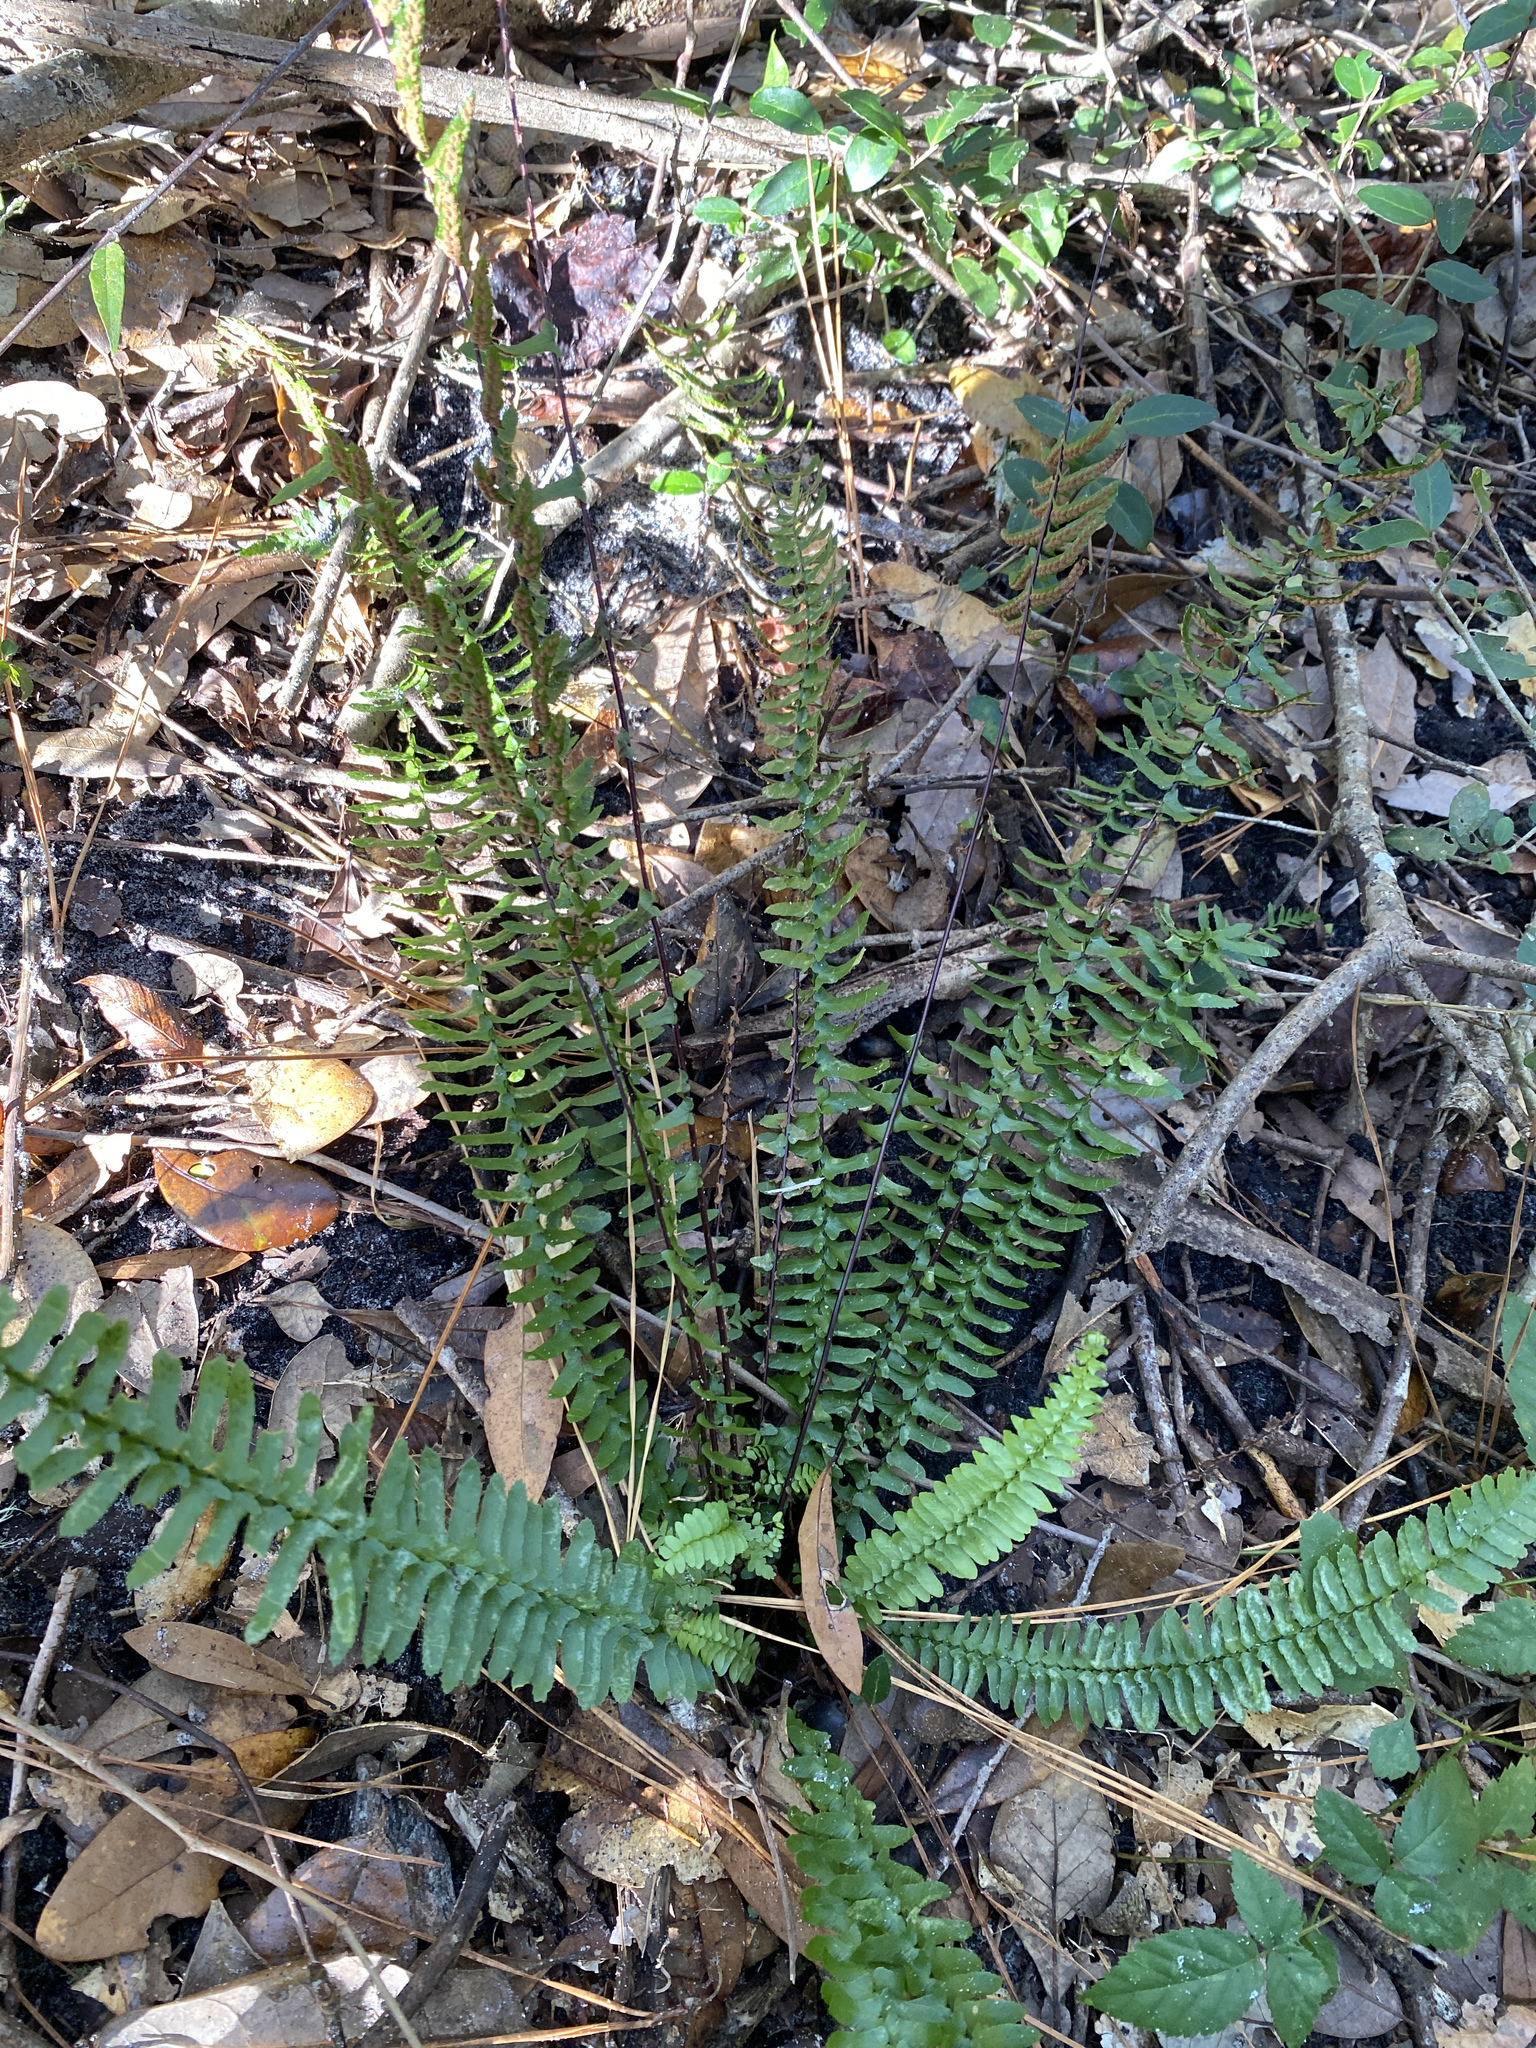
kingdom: Plantae
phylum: Tracheophyta
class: Polypodiopsida
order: Polypodiales
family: Aspleniaceae
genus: Asplenium
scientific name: Asplenium platyneuron
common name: Ebony spleenwort
